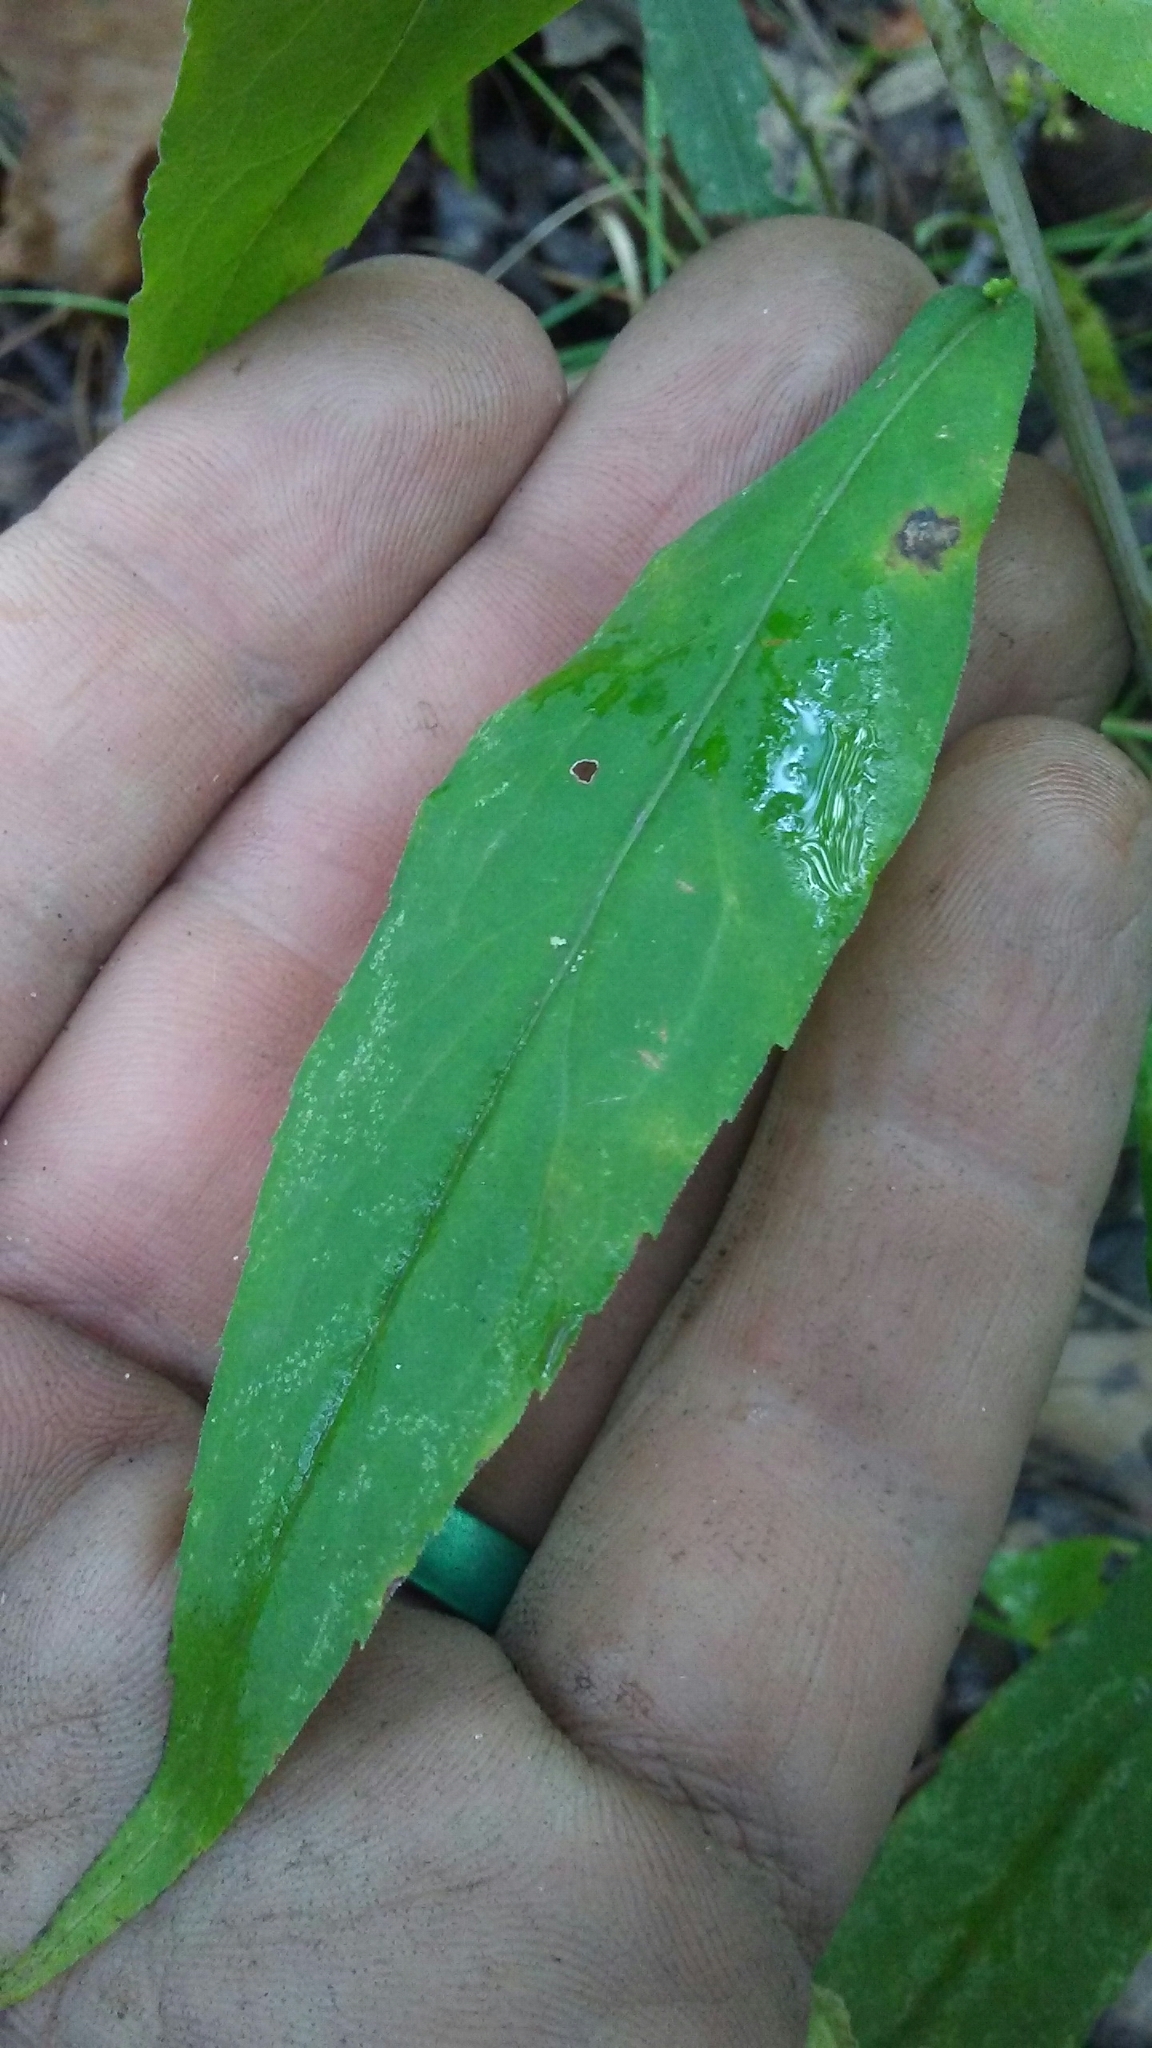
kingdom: Plantae
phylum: Tracheophyta
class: Magnoliopsida
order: Asterales
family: Asteraceae
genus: Solidago
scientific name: Solidago caesia
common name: Woodland goldenrod
